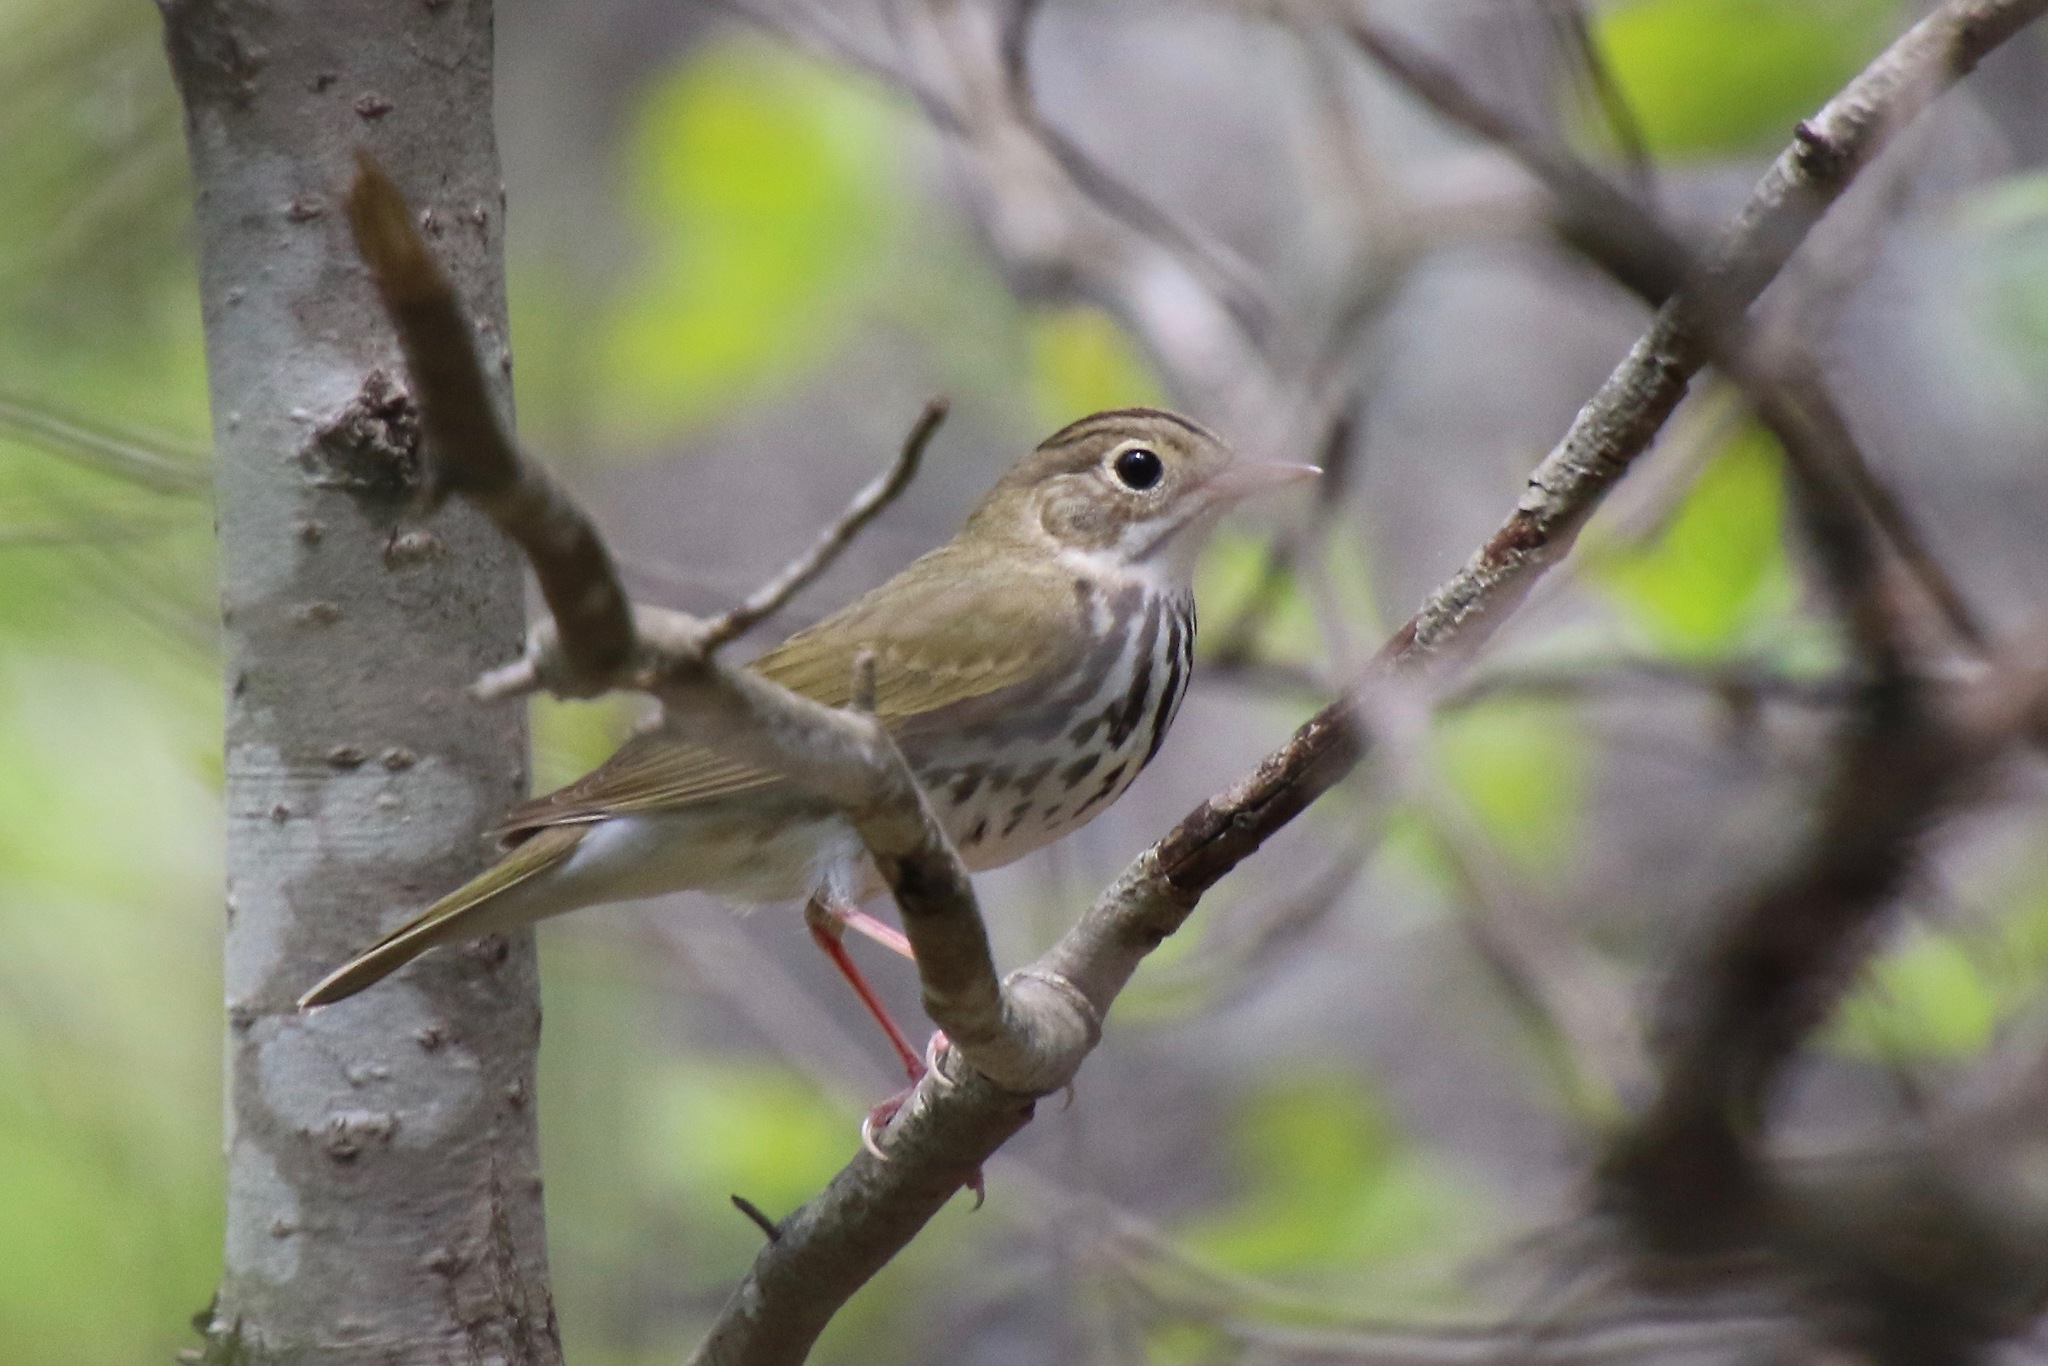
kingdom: Animalia
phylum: Chordata
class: Aves
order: Passeriformes
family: Parulidae
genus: Seiurus
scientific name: Seiurus aurocapilla
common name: Ovenbird
